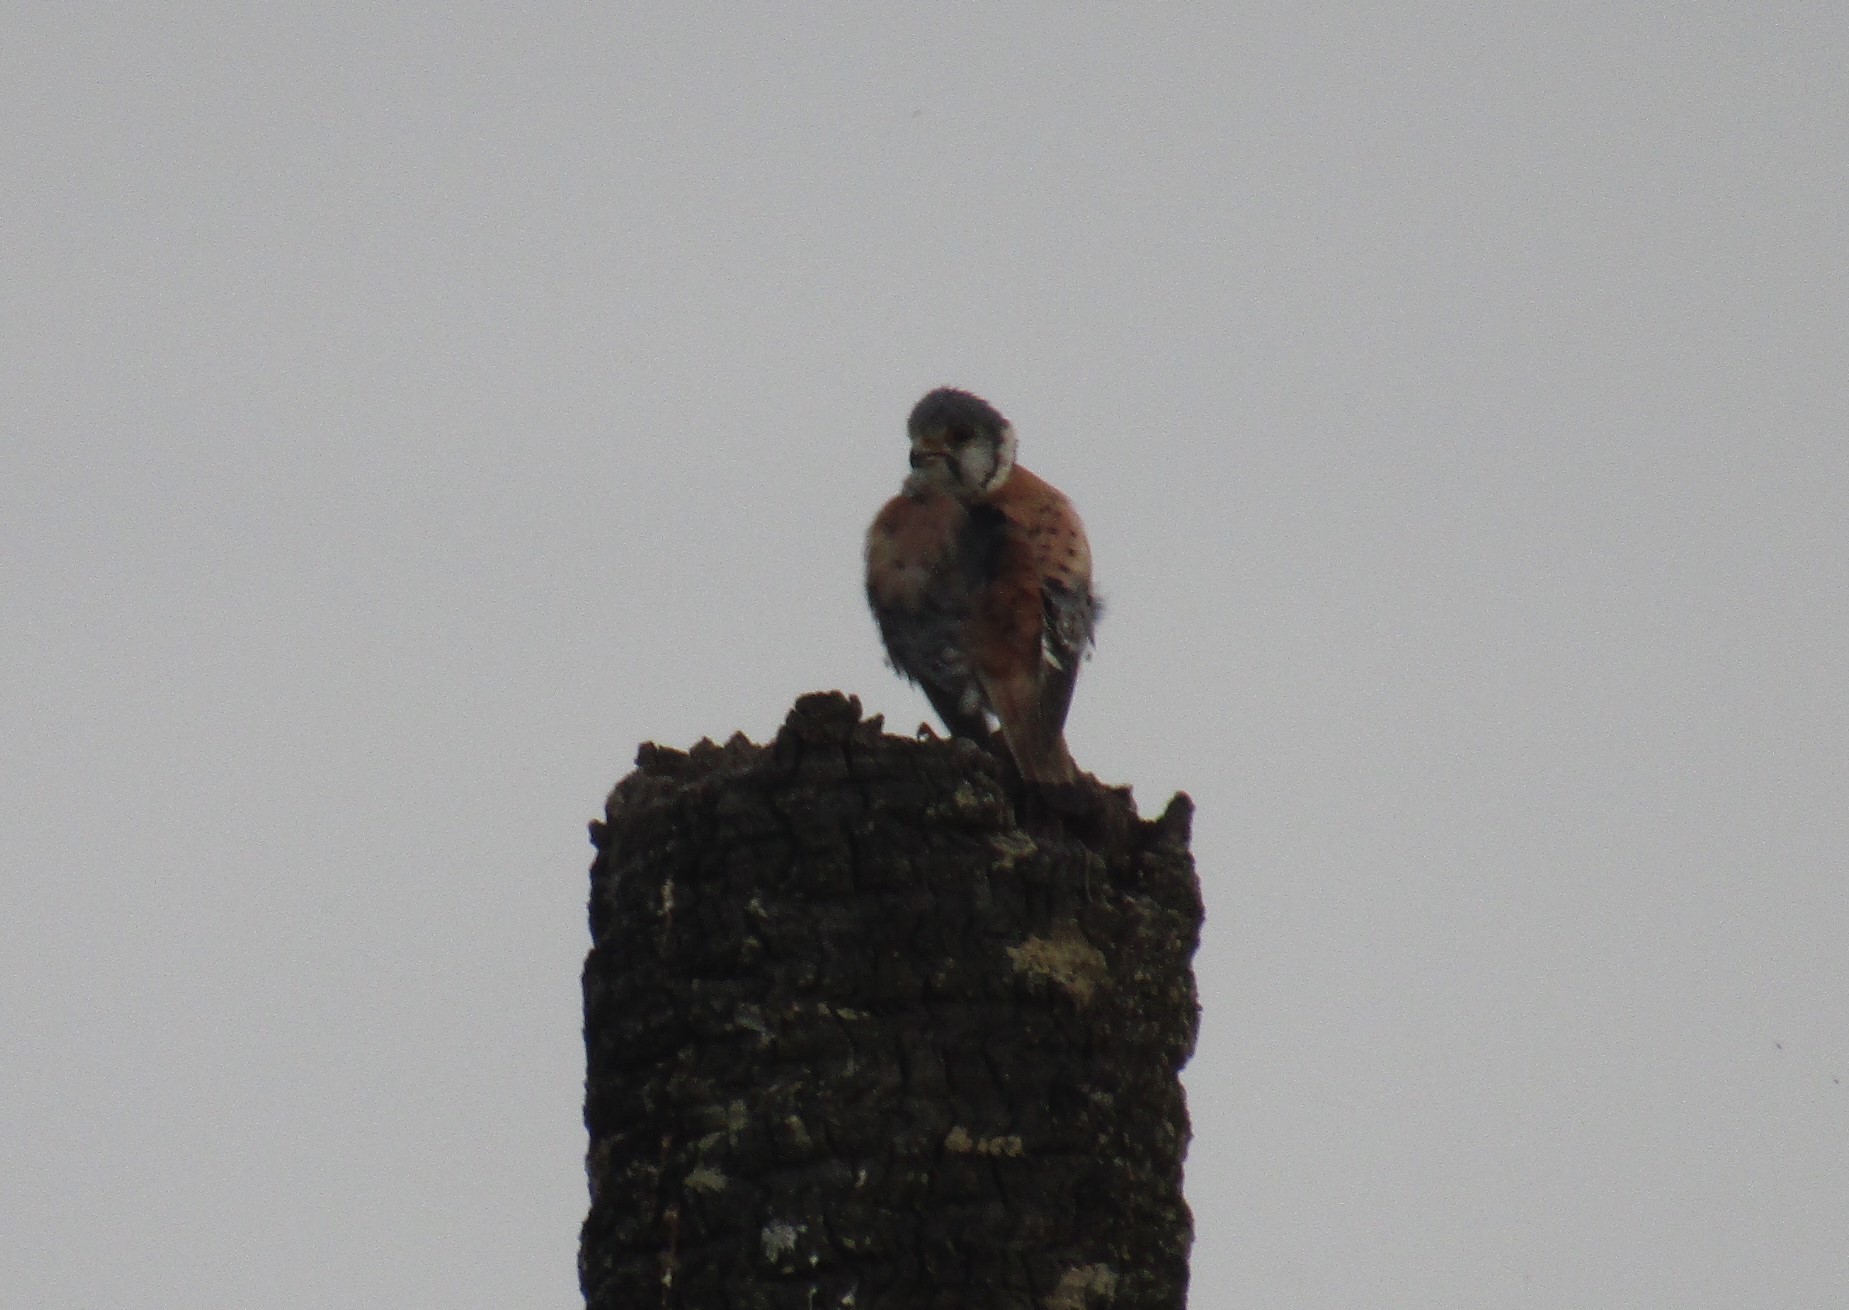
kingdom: Animalia
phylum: Chordata
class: Aves
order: Falconiformes
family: Falconidae
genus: Falco
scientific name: Falco sparverius
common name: American kestrel
